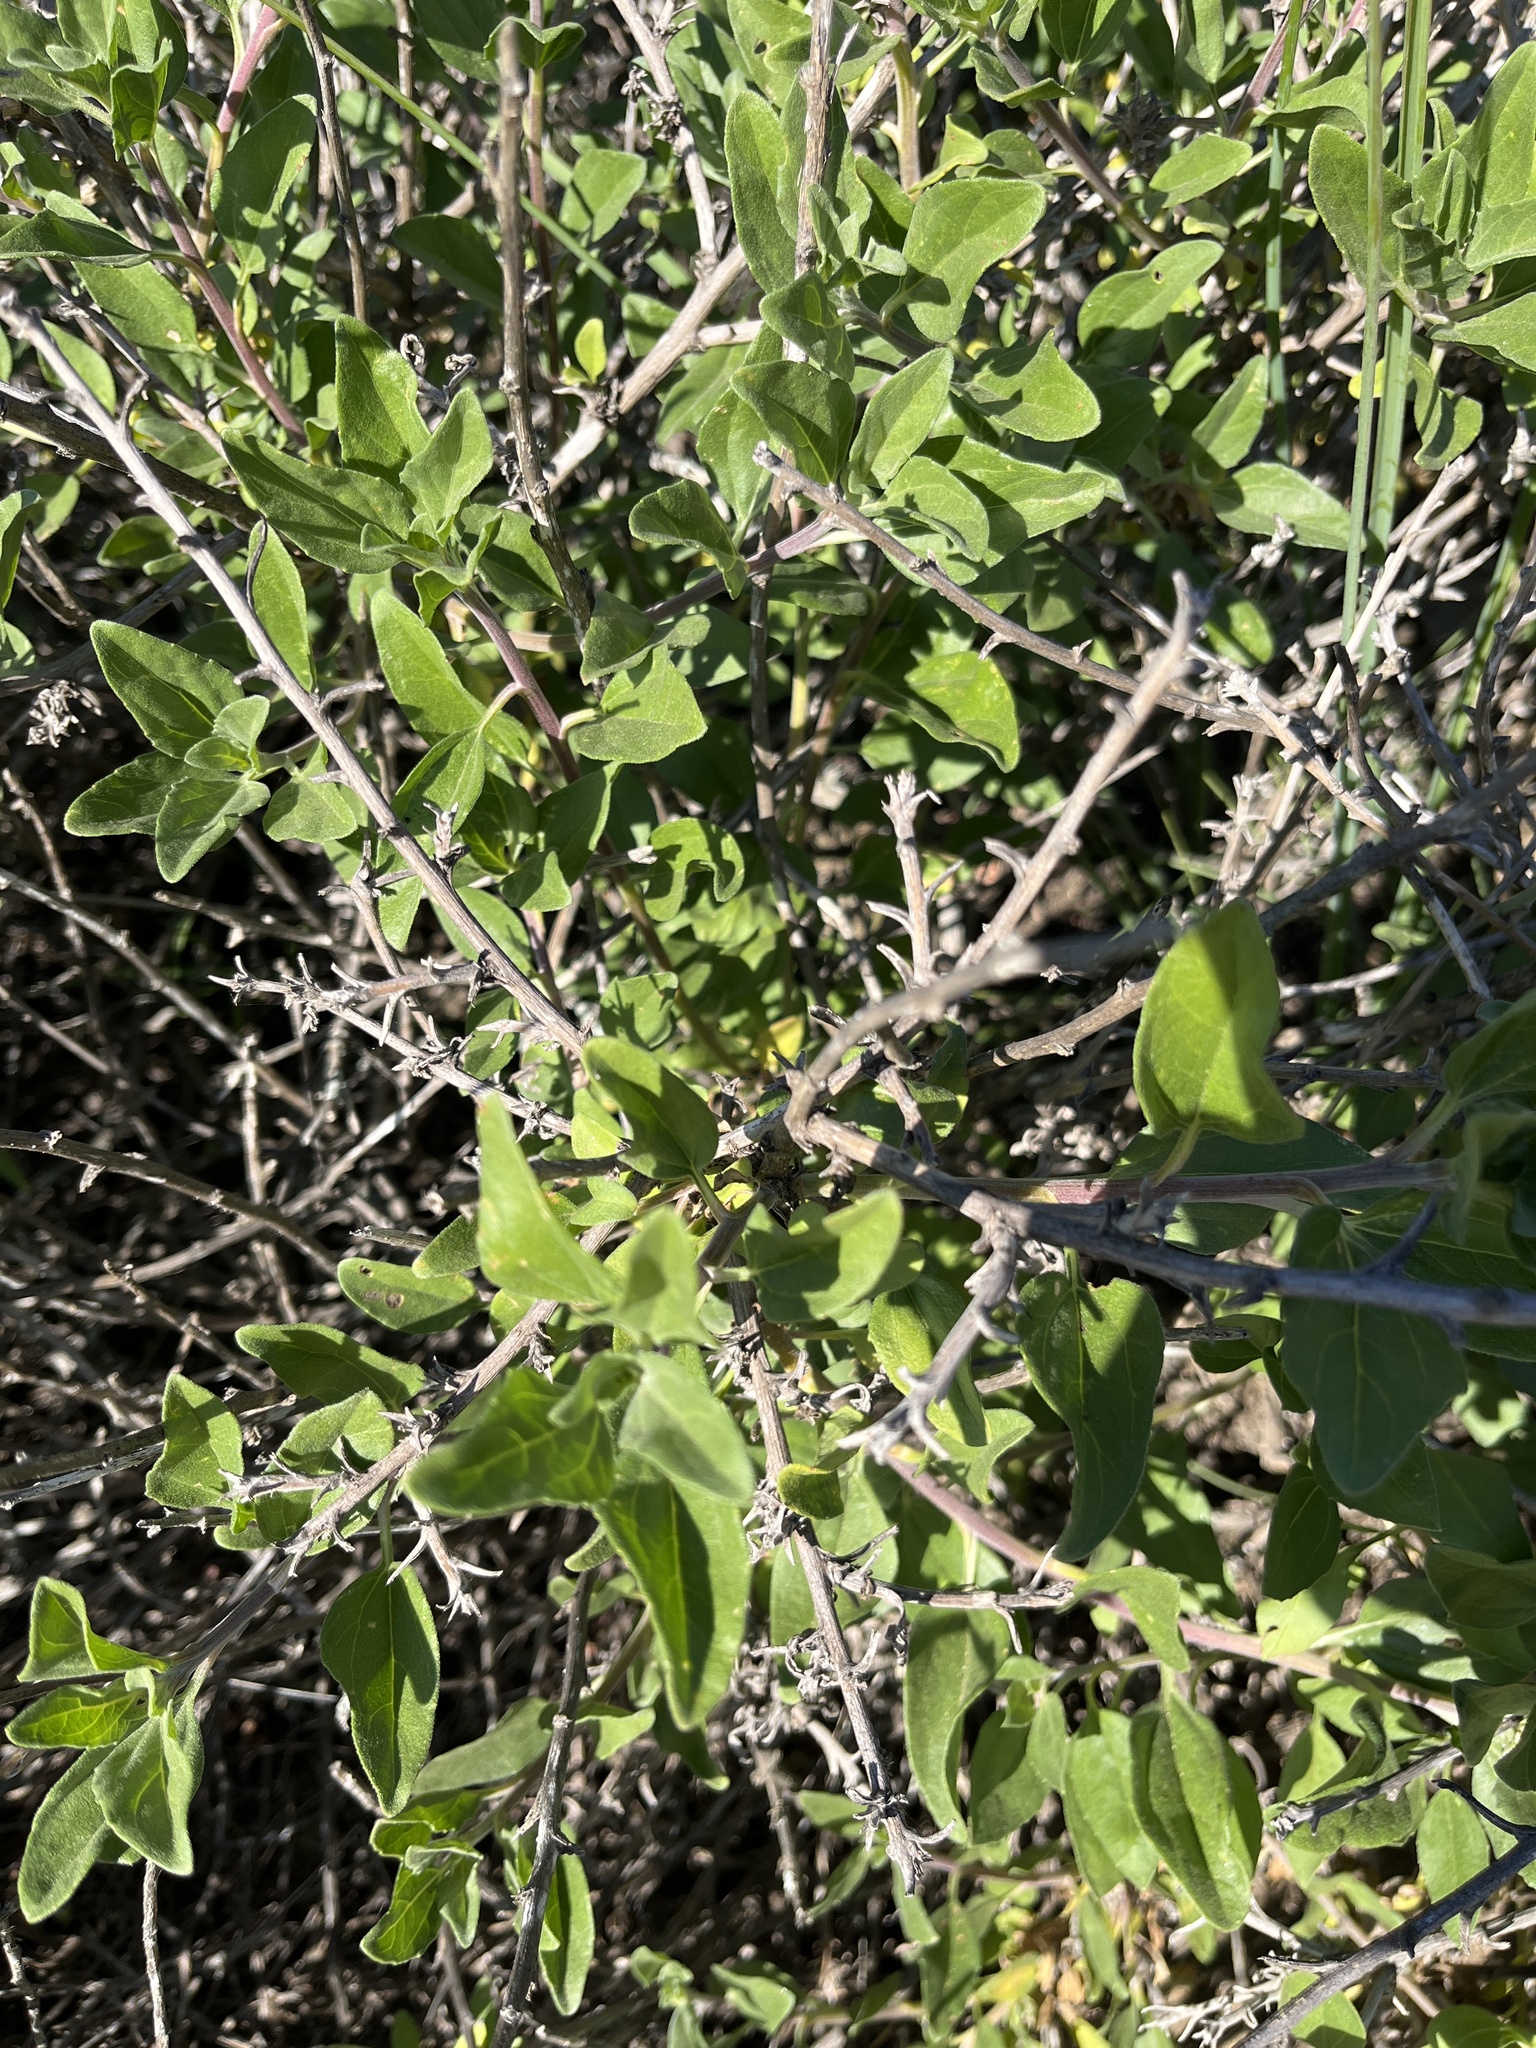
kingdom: Plantae
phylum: Tracheophyta
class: Magnoliopsida
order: Asterales
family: Asteraceae
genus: Encelia
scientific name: Encelia californica
